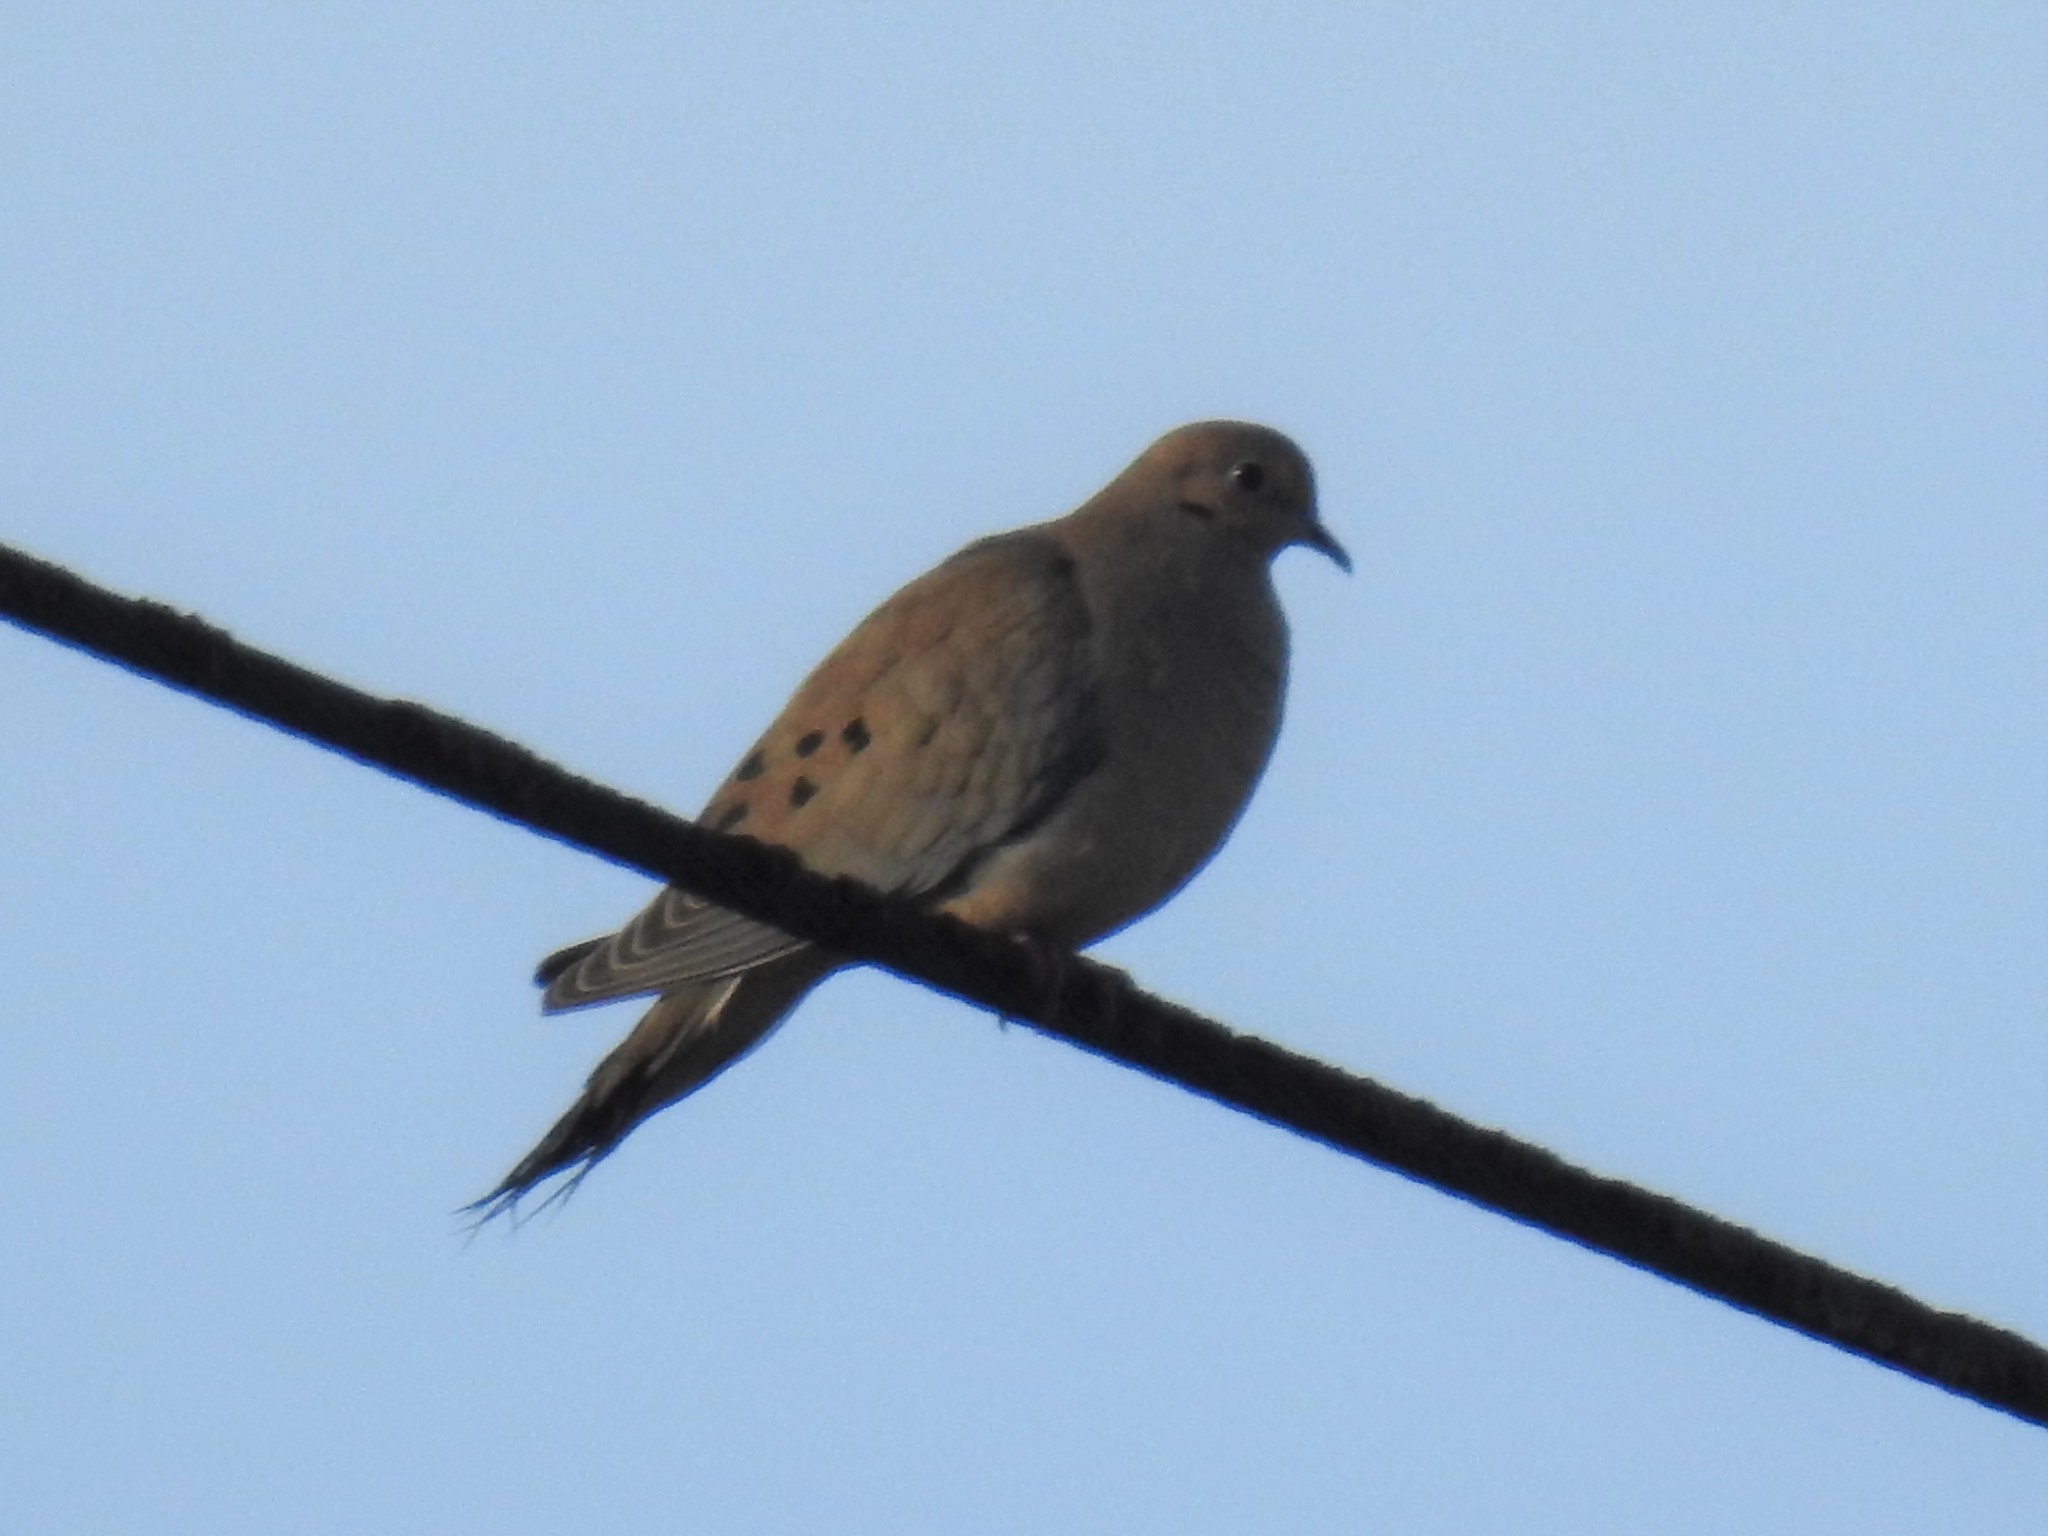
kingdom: Animalia
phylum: Chordata
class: Aves
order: Columbiformes
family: Columbidae
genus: Zenaida
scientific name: Zenaida macroura
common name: Mourning dove
